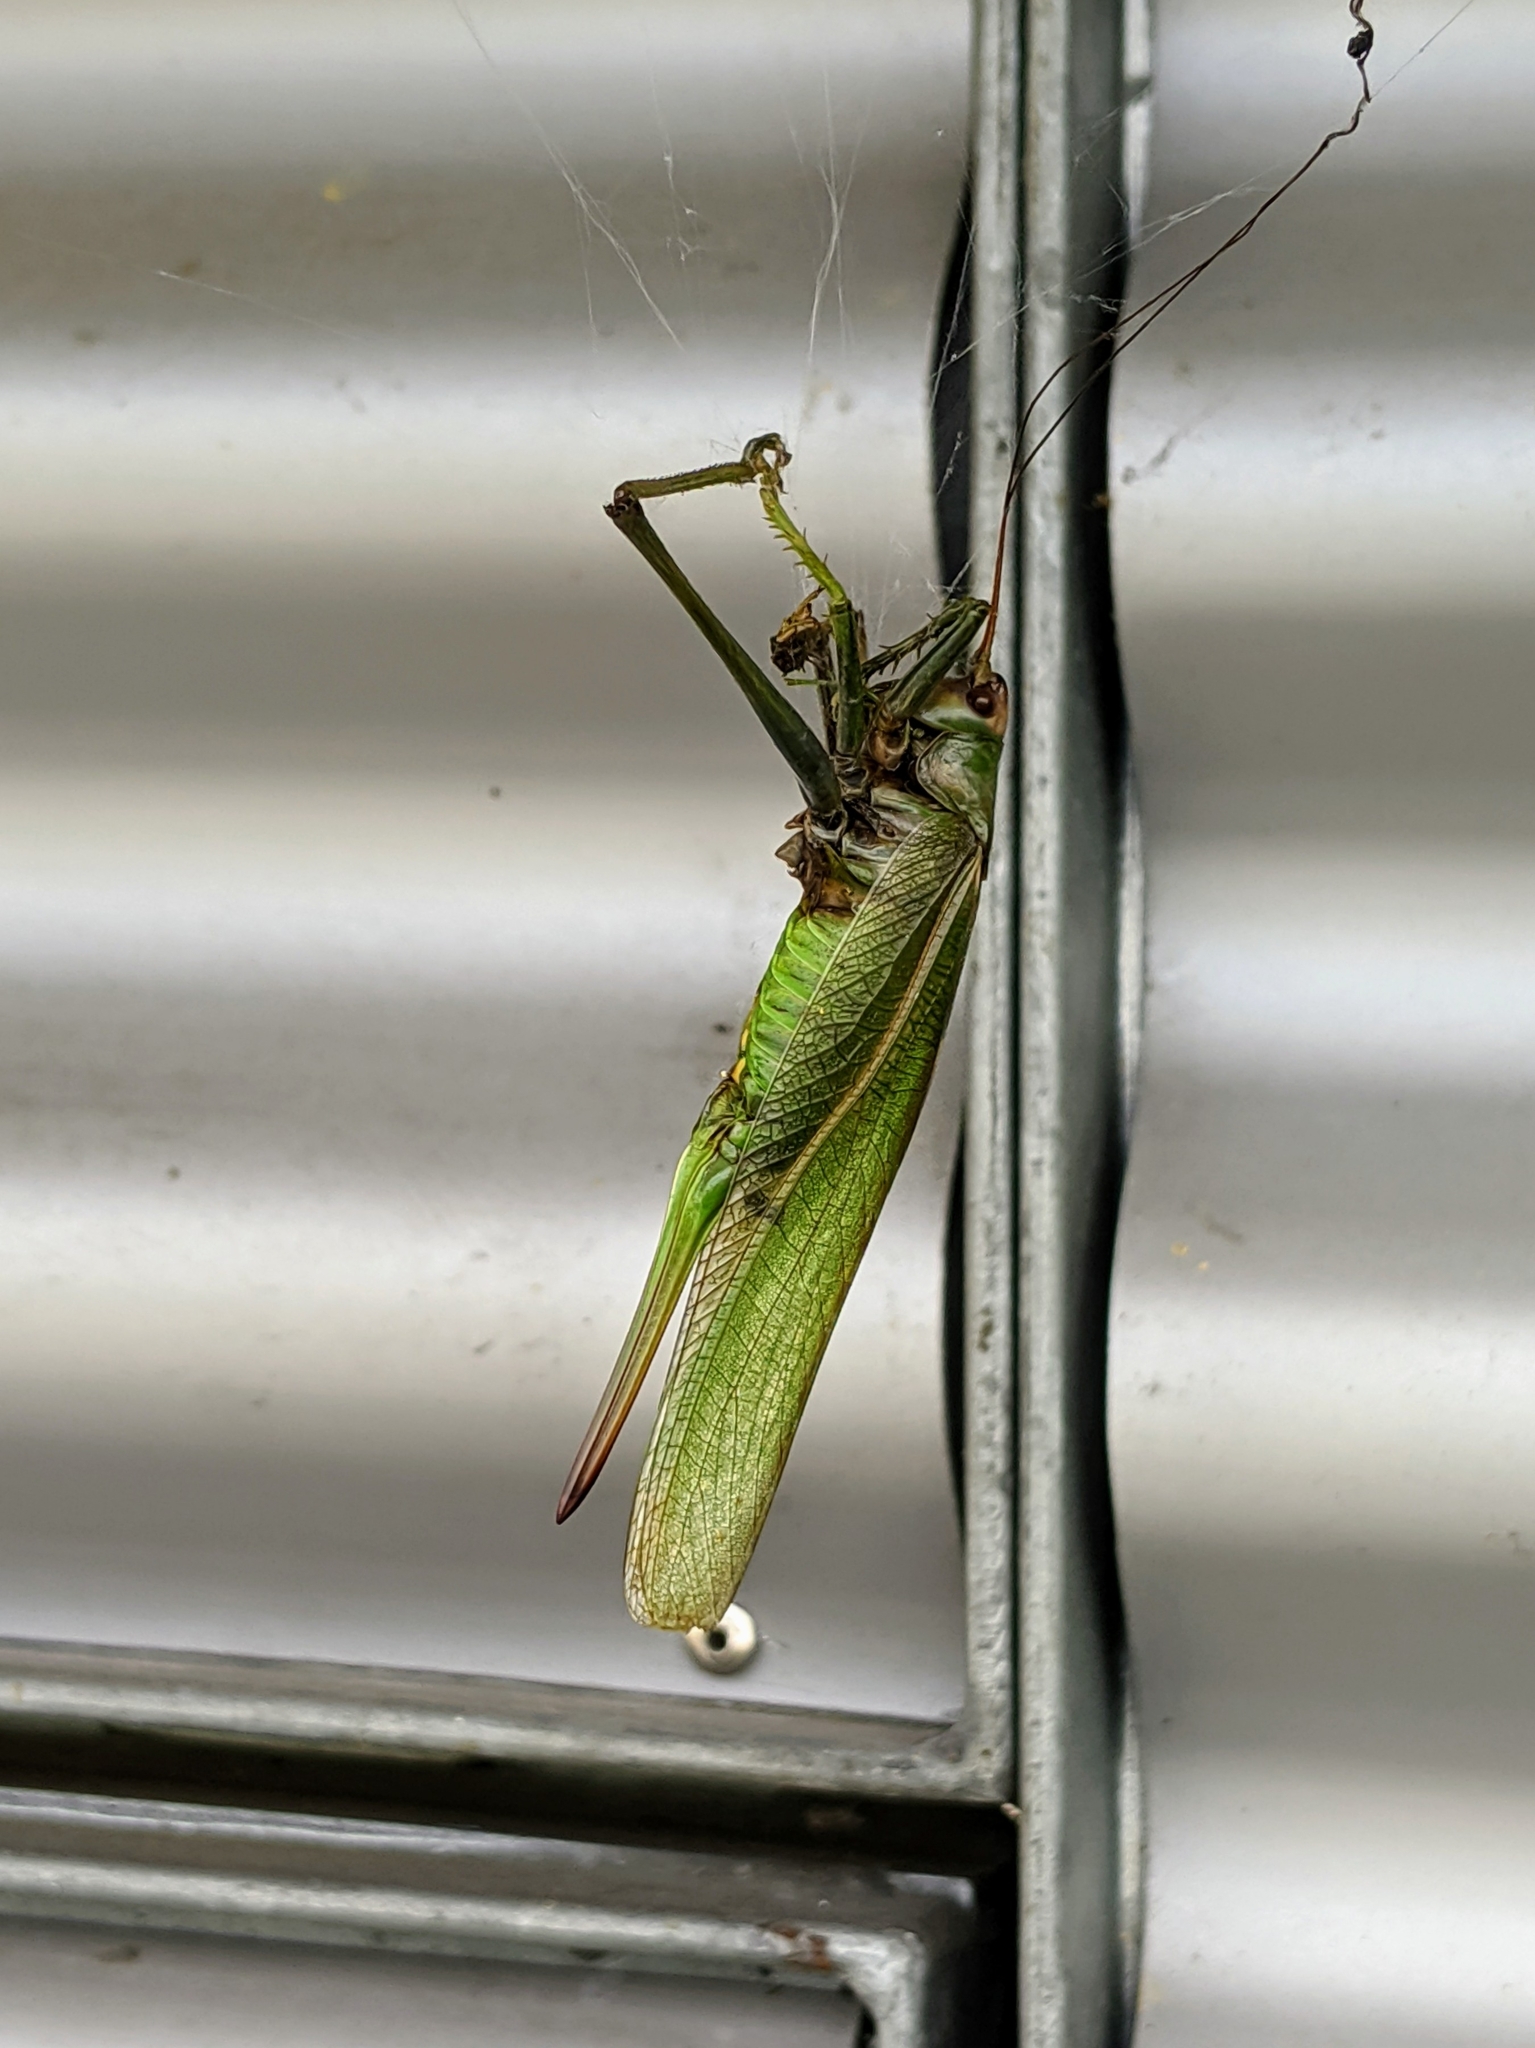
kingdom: Animalia
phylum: Arthropoda
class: Insecta
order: Orthoptera
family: Tettigoniidae
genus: Tettigonia
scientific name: Tettigonia viridissima
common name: Great green bush-cricket
